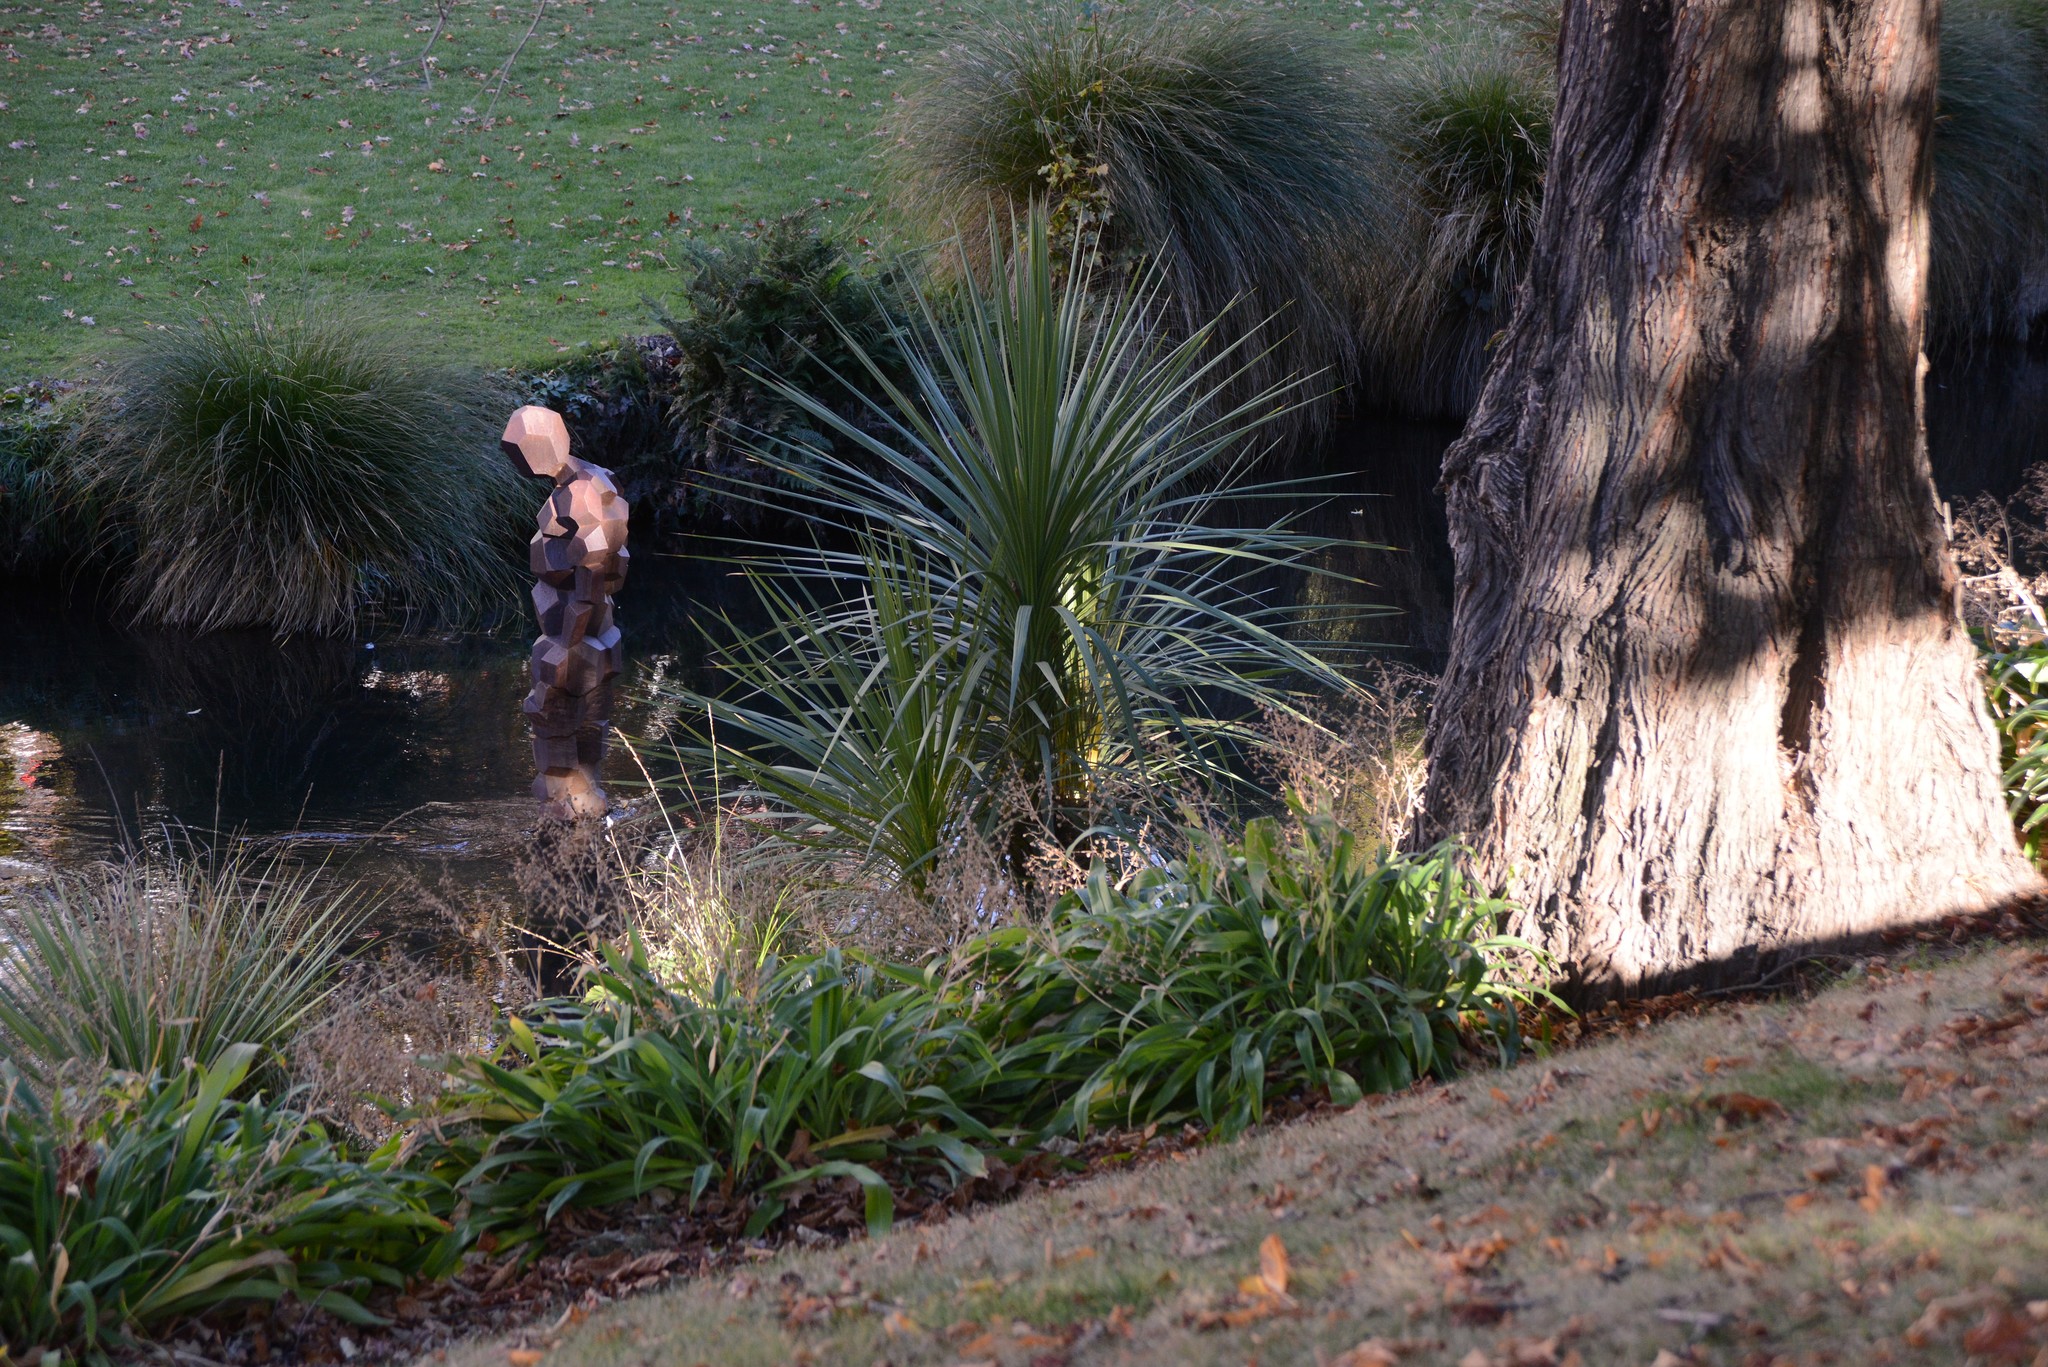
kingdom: Plantae
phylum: Tracheophyta
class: Liliopsida
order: Asparagales
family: Asparagaceae
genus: Cordyline
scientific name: Cordyline australis
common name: Cabbage-palm
